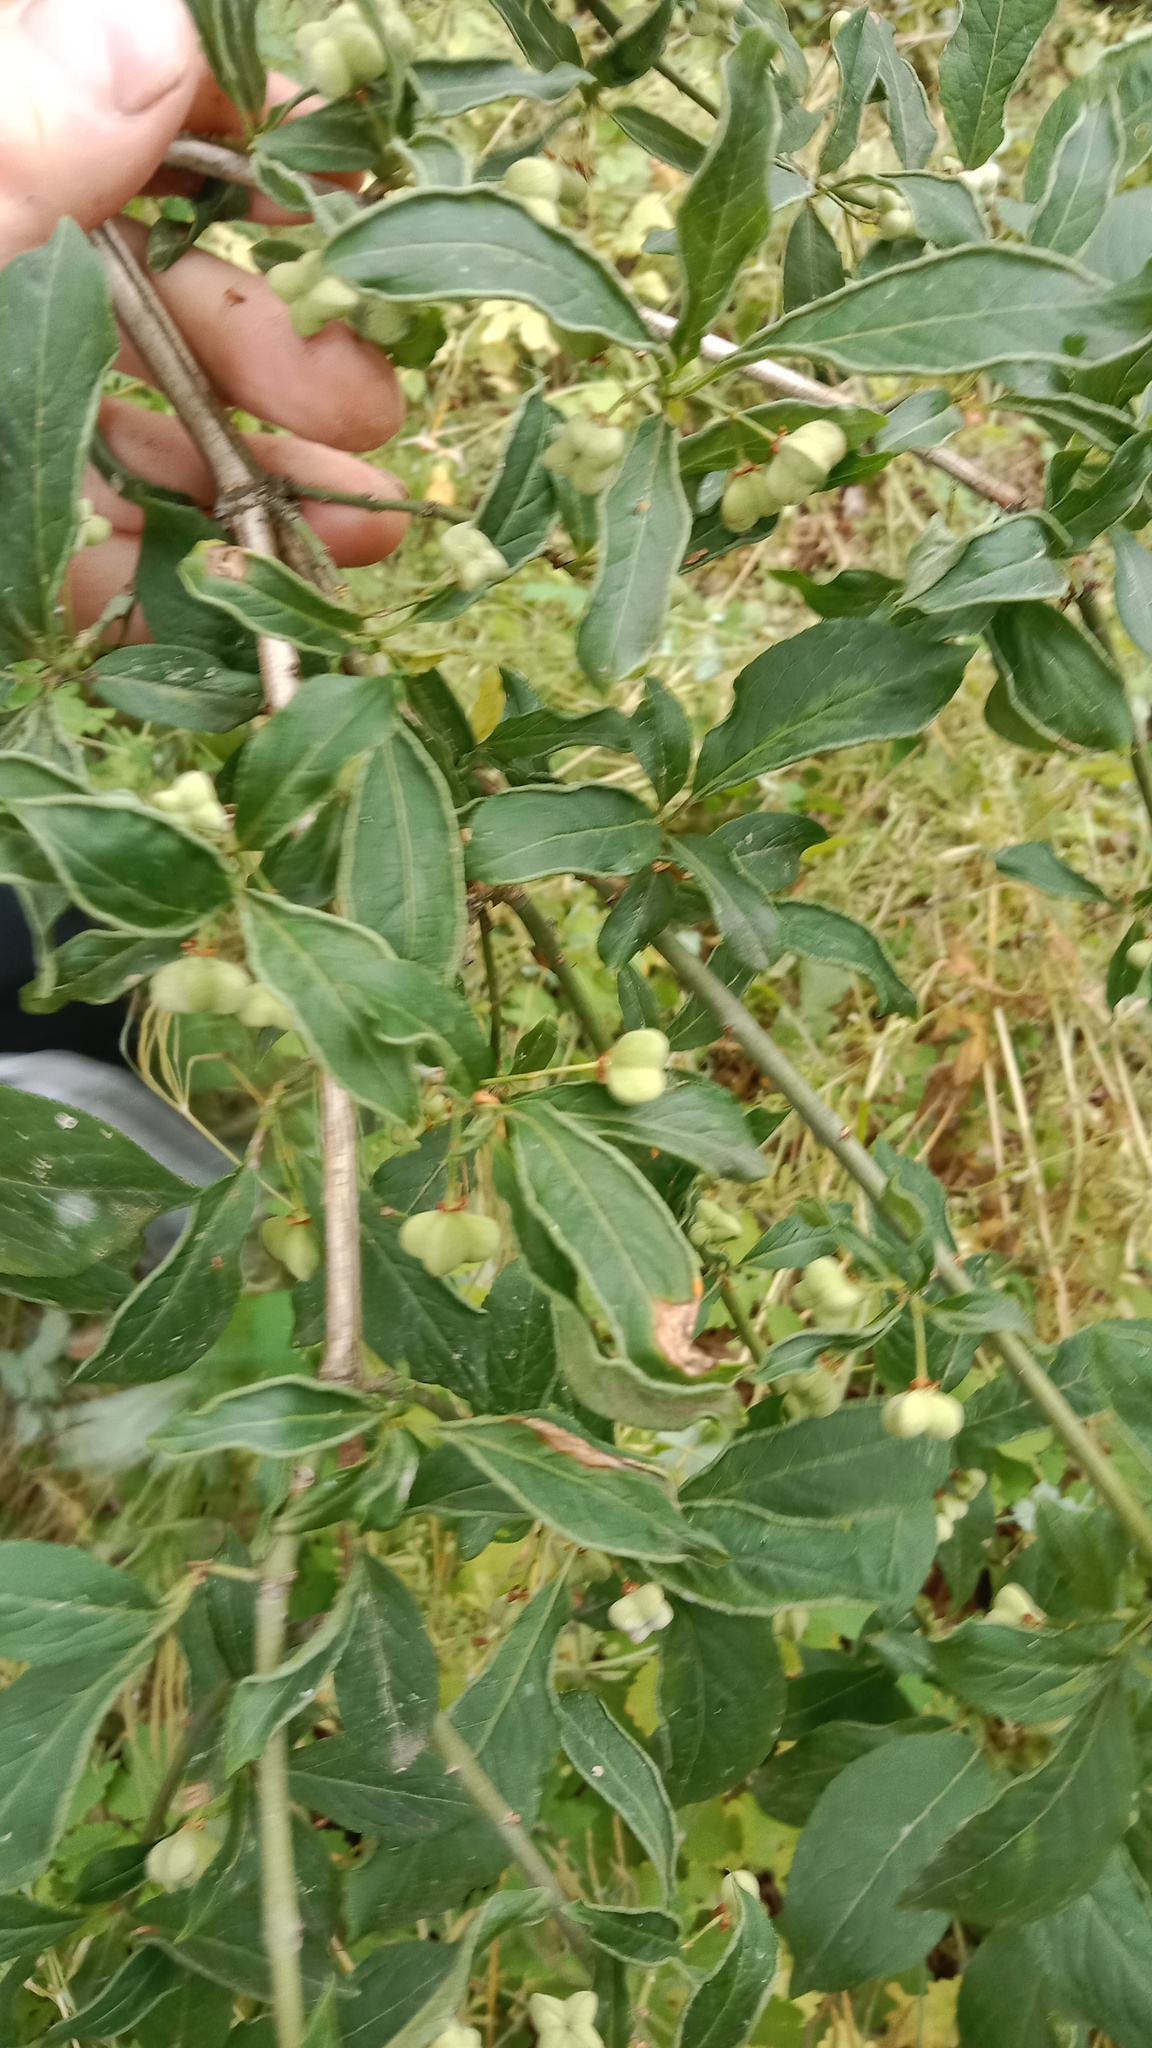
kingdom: Plantae
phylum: Tracheophyta
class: Magnoliopsida
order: Celastrales
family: Celastraceae
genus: Euonymus
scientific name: Euonymus europaeus
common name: Spindle
